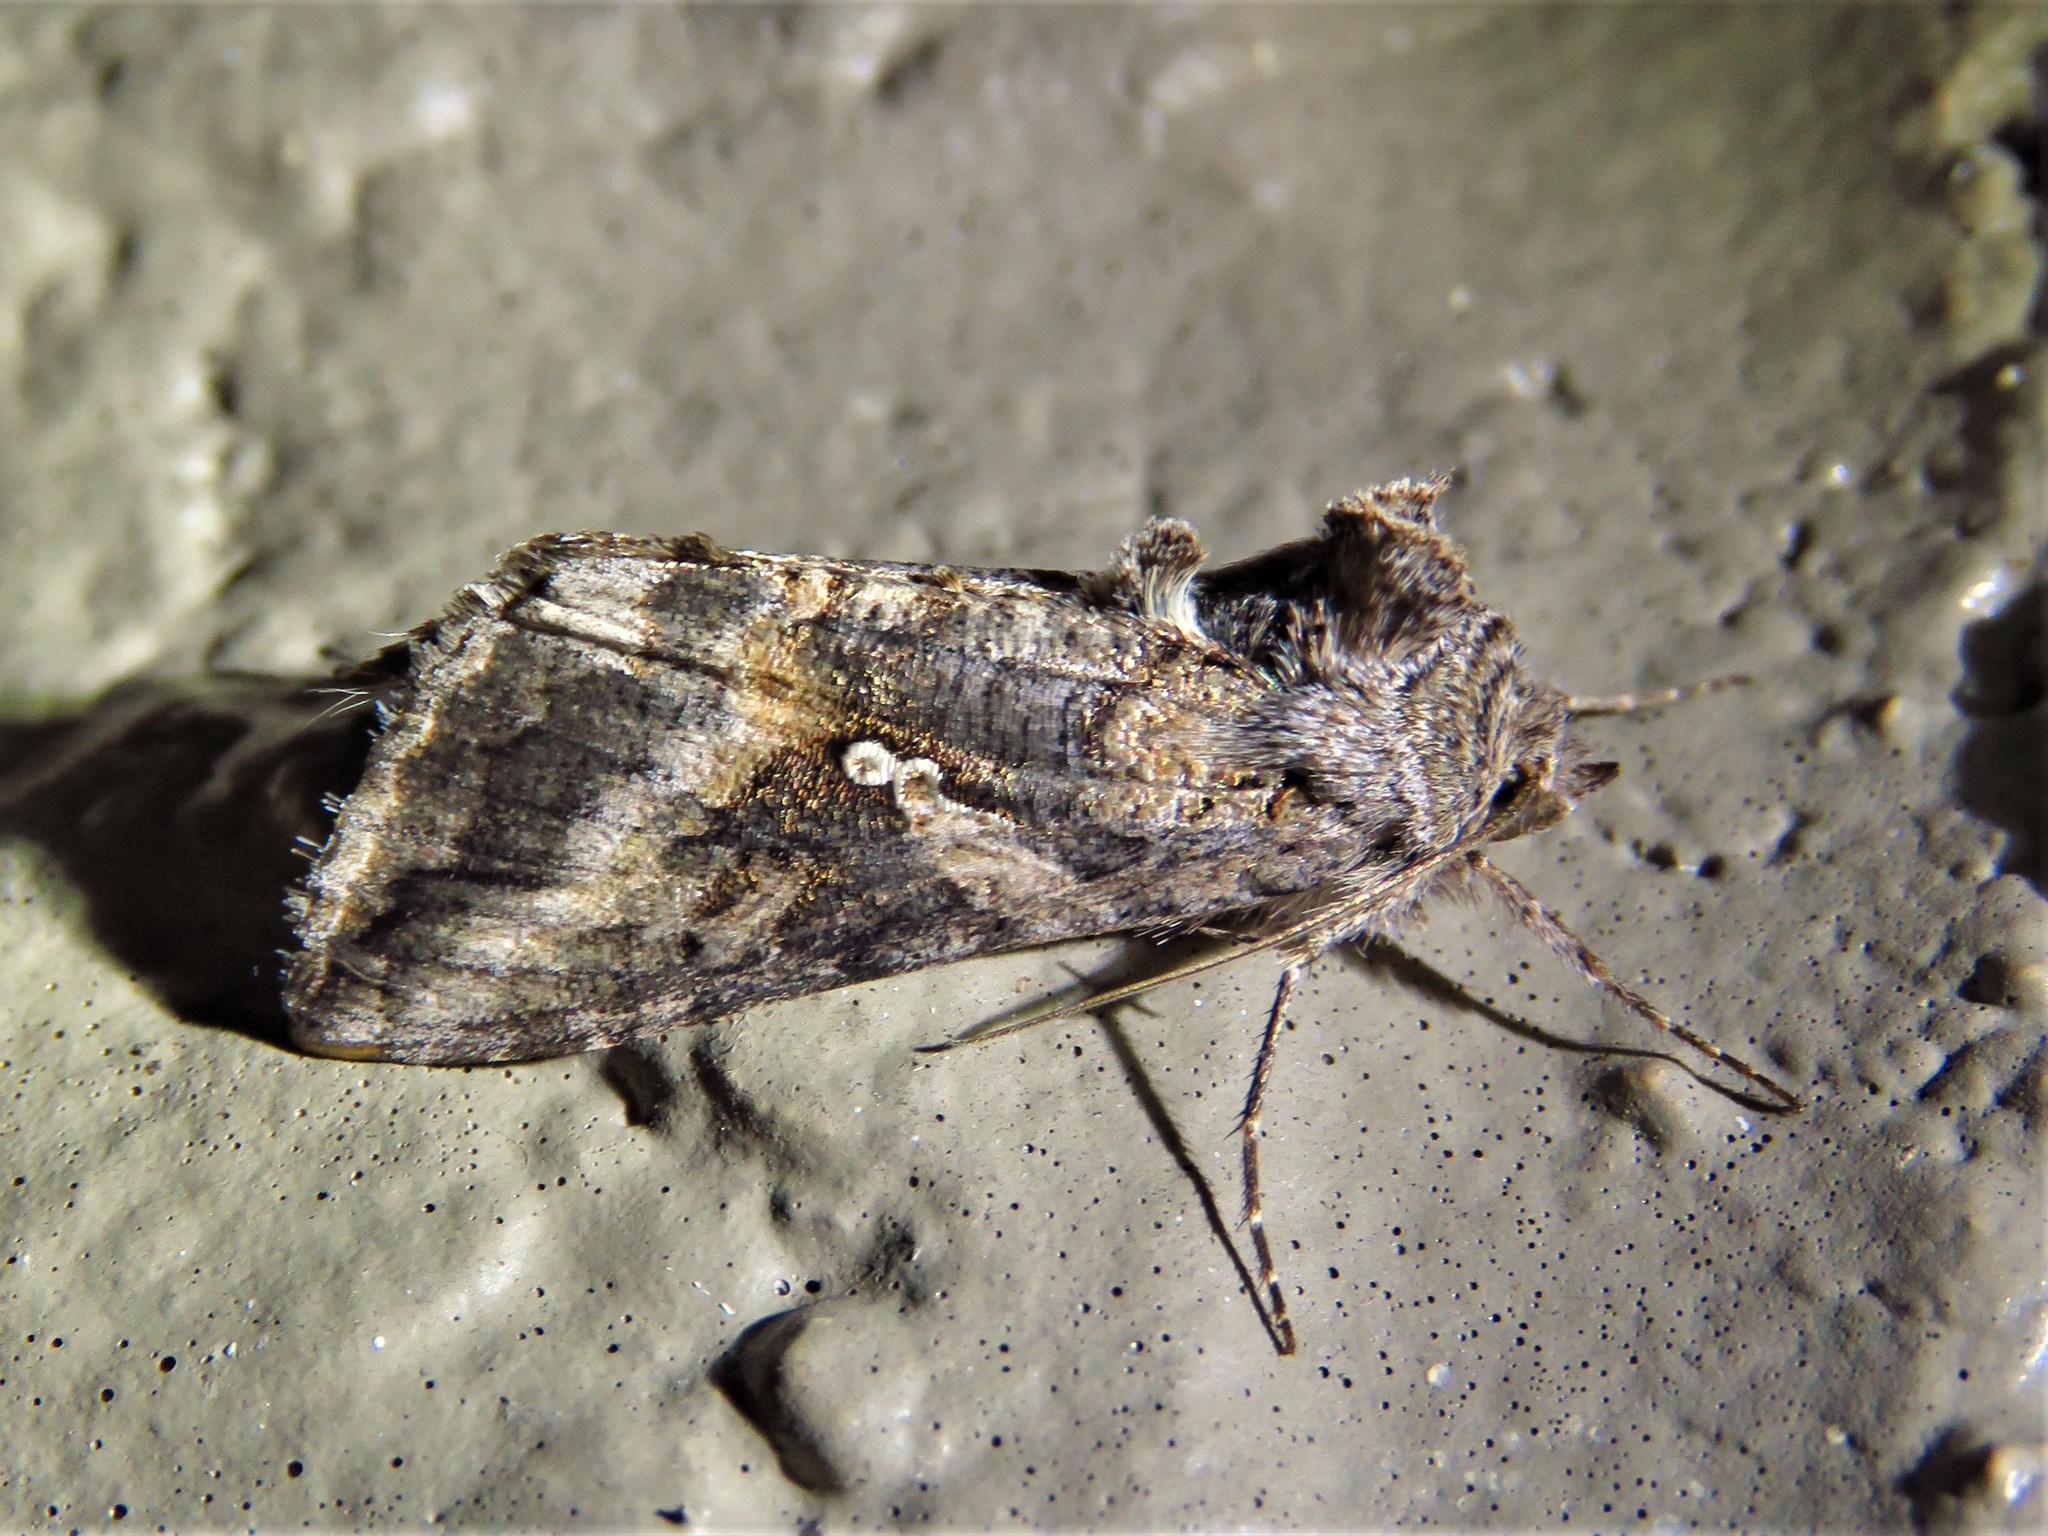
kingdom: Animalia
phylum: Arthropoda
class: Insecta
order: Lepidoptera
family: Noctuidae
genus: Rachiplusia
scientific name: Rachiplusia ou
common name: Gray looper moth
